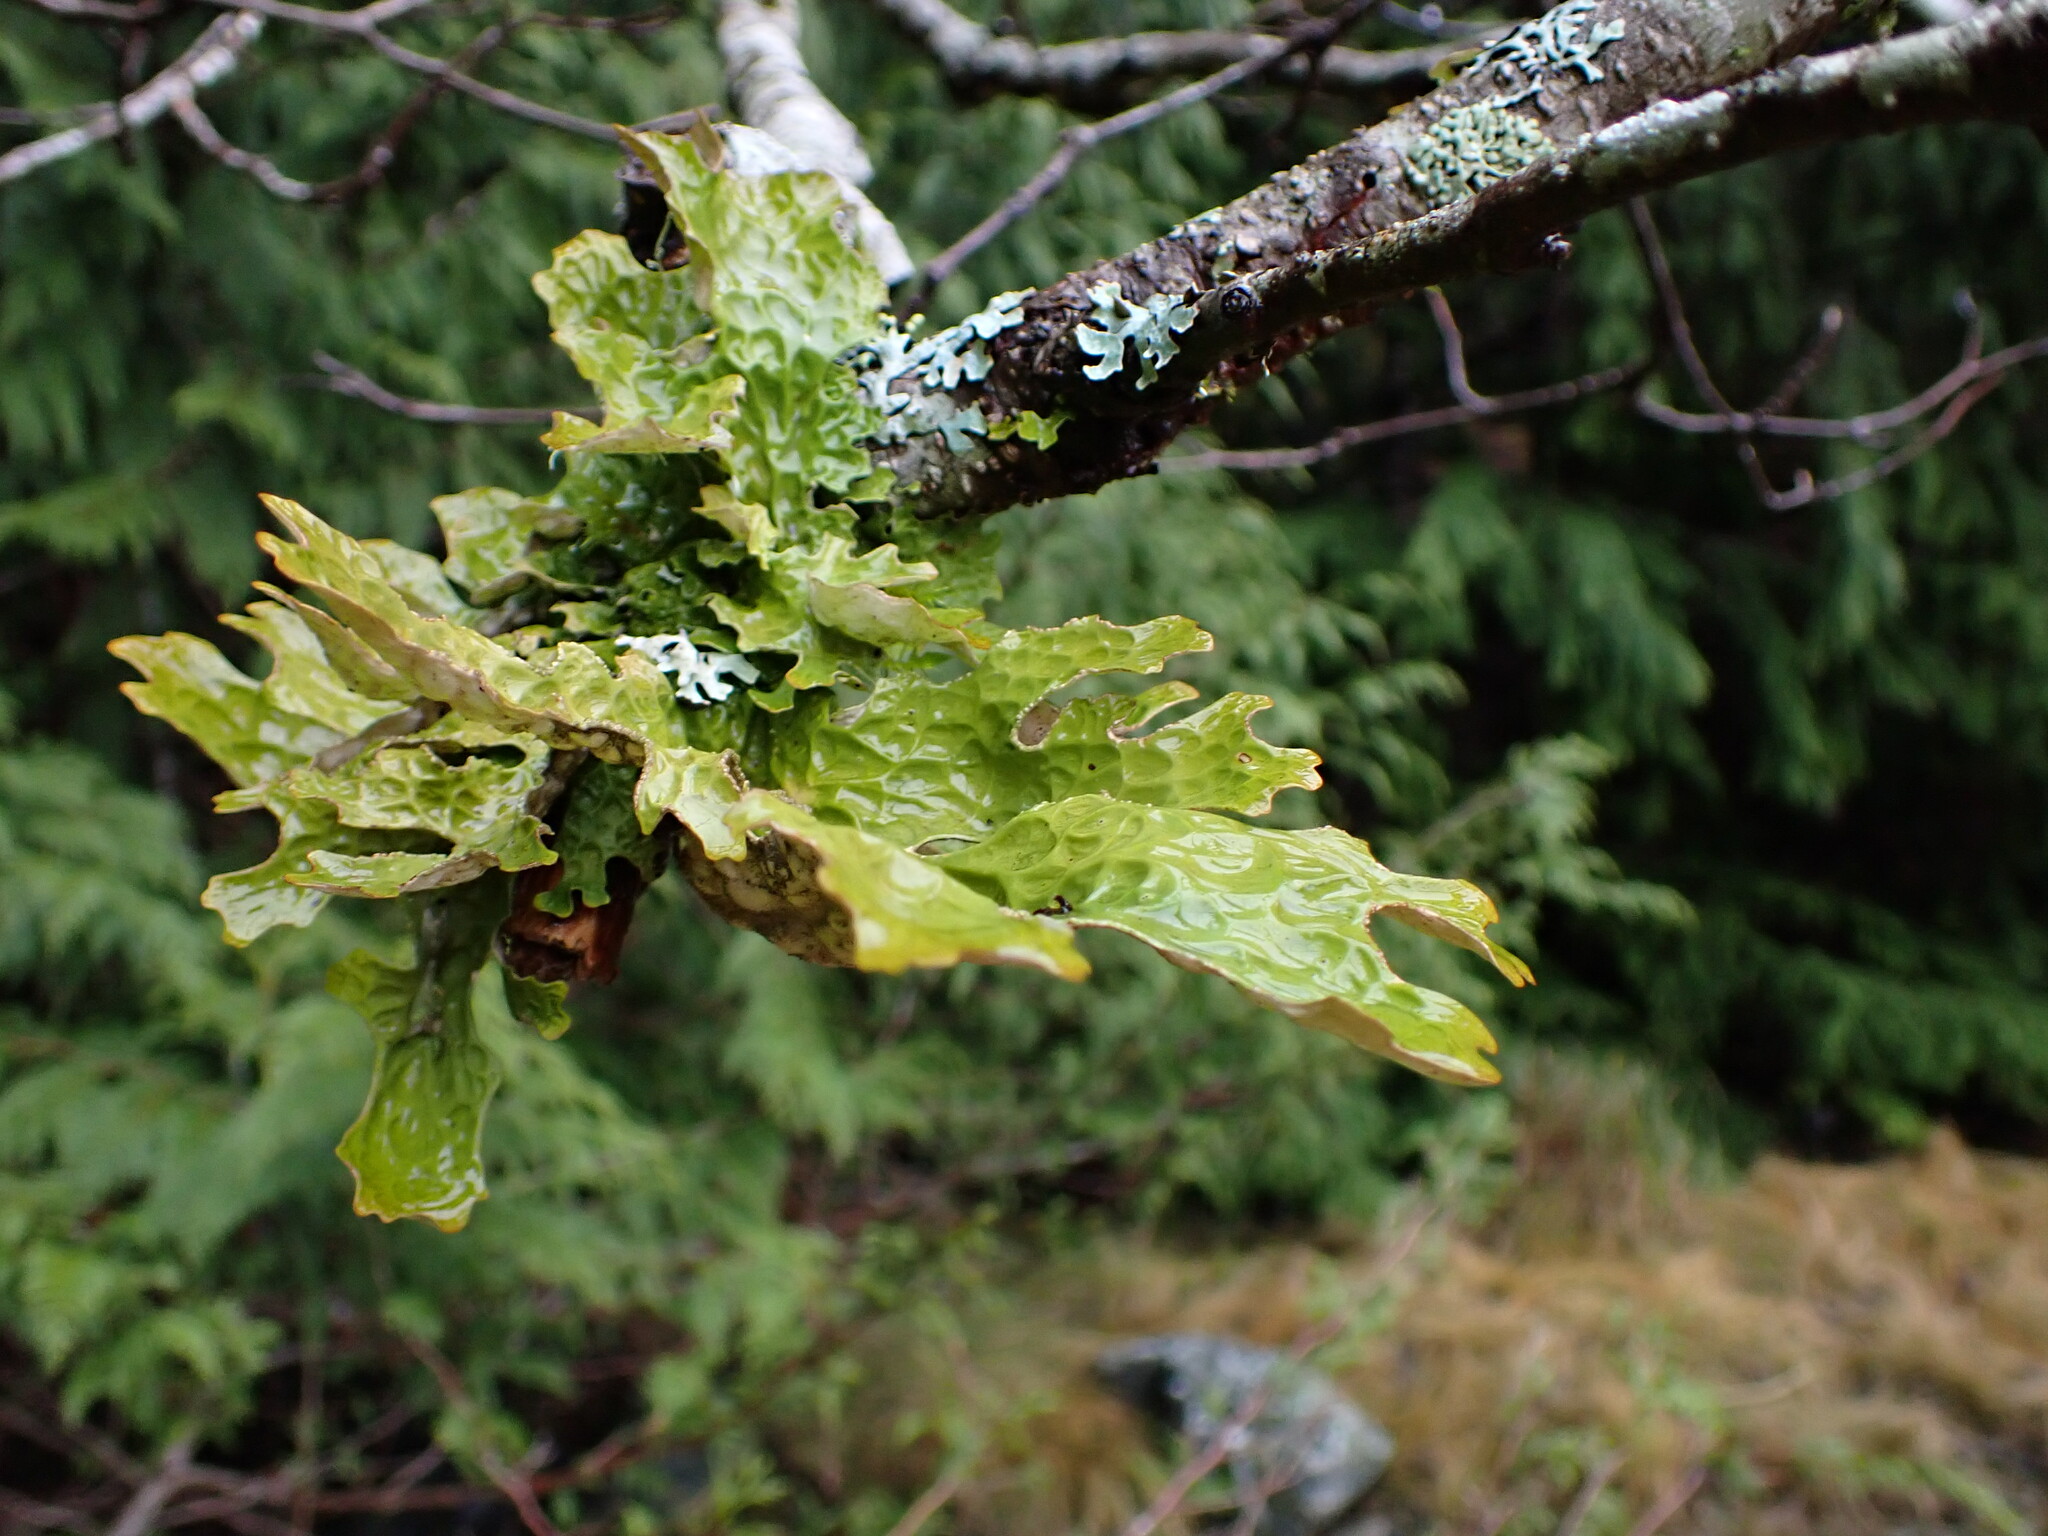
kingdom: Fungi
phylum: Ascomycota
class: Lecanoromycetes
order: Peltigerales
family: Lobariaceae
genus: Lobaria
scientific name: Lobaria pulmonaria
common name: Lungwort
